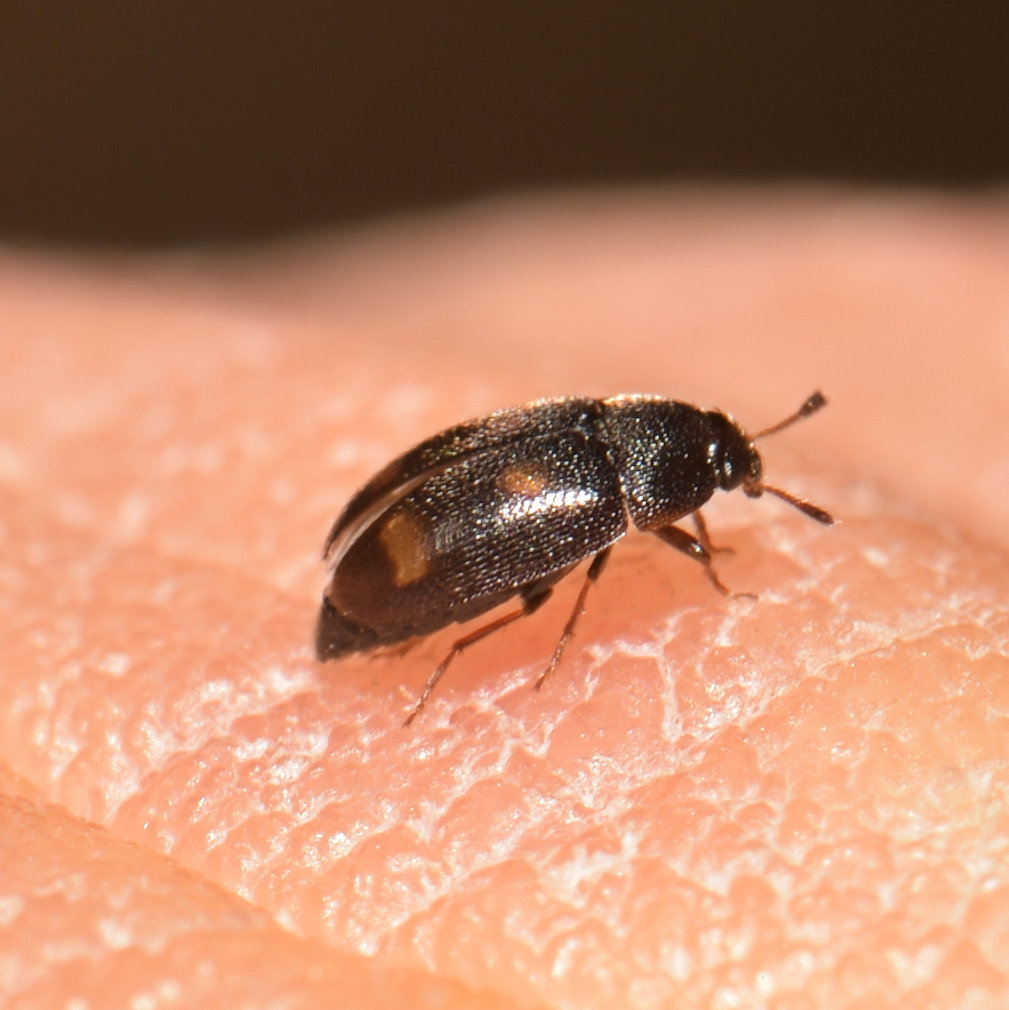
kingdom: Animalia
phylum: Arthropoda
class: Insecta
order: Coleoptera
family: Mycetophagidae
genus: Litargus
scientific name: Litargus tetraspilotus
